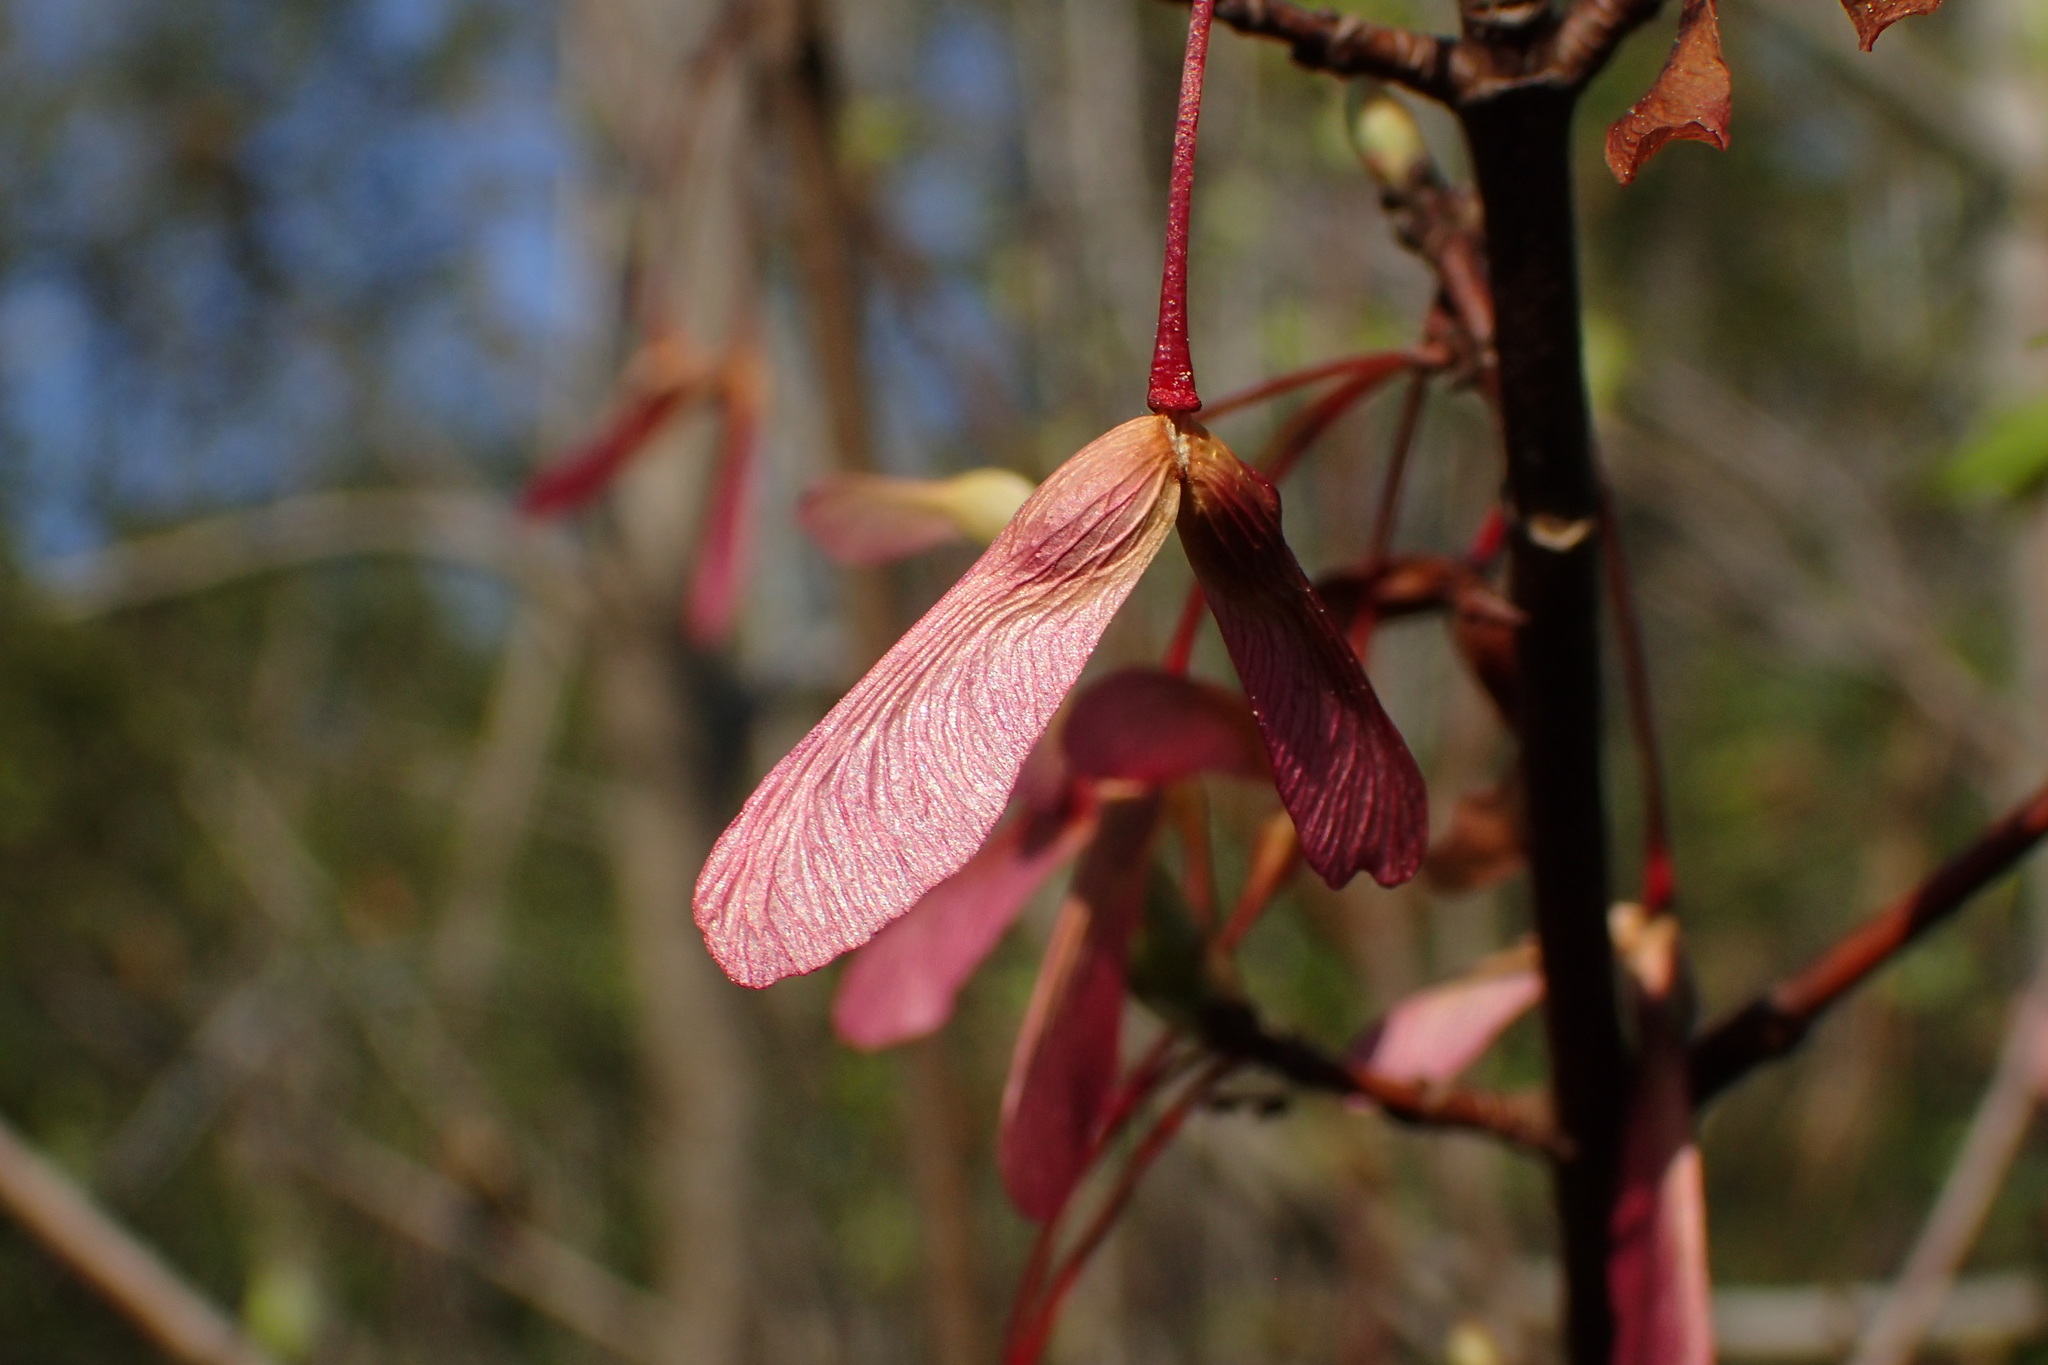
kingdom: Plantae
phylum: Tracheophyta
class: Magnoliopsida
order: Sapindales
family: Sapindaceae
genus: Acer
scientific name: Acer rubrum
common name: Red maple
